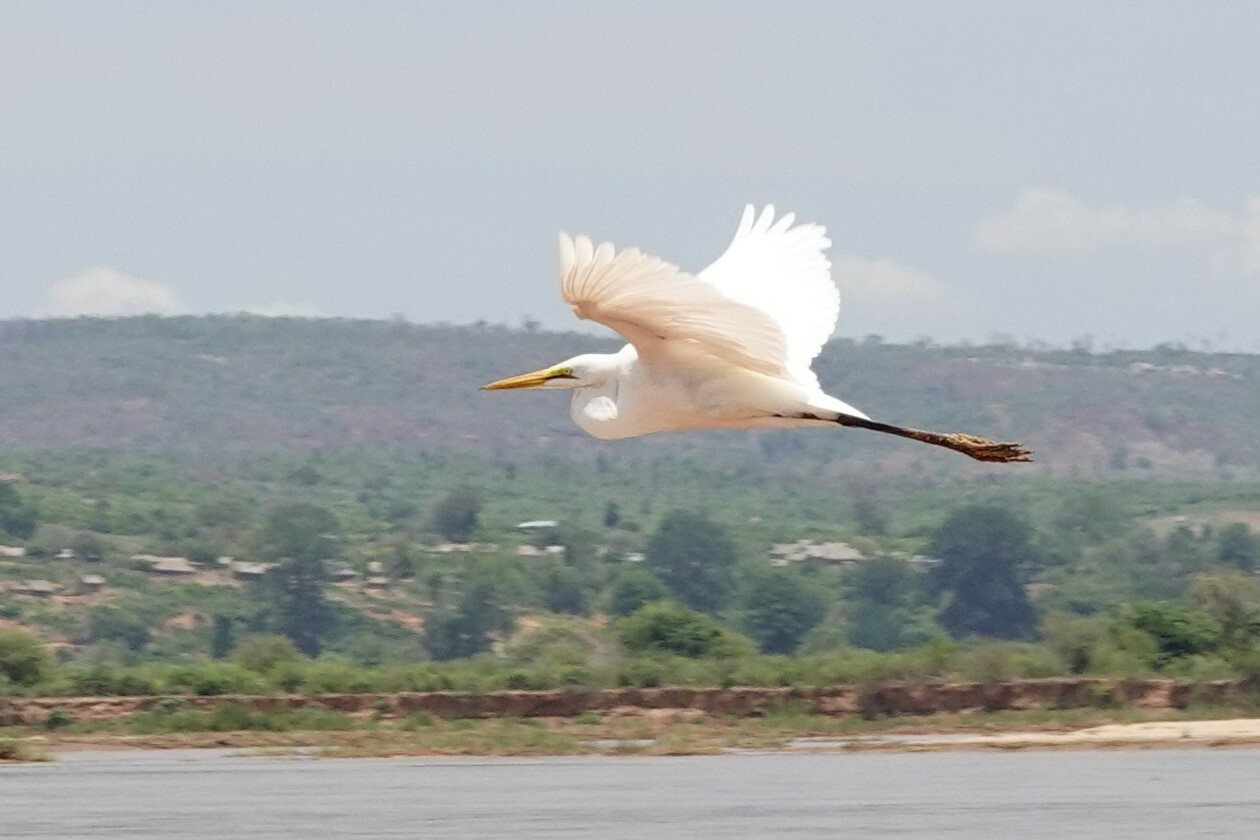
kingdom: Animalia
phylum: Chordata
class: Aves
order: Pelecaniformes
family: Ardeidae
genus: Ardea
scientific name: Ardea alba
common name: Great egret
